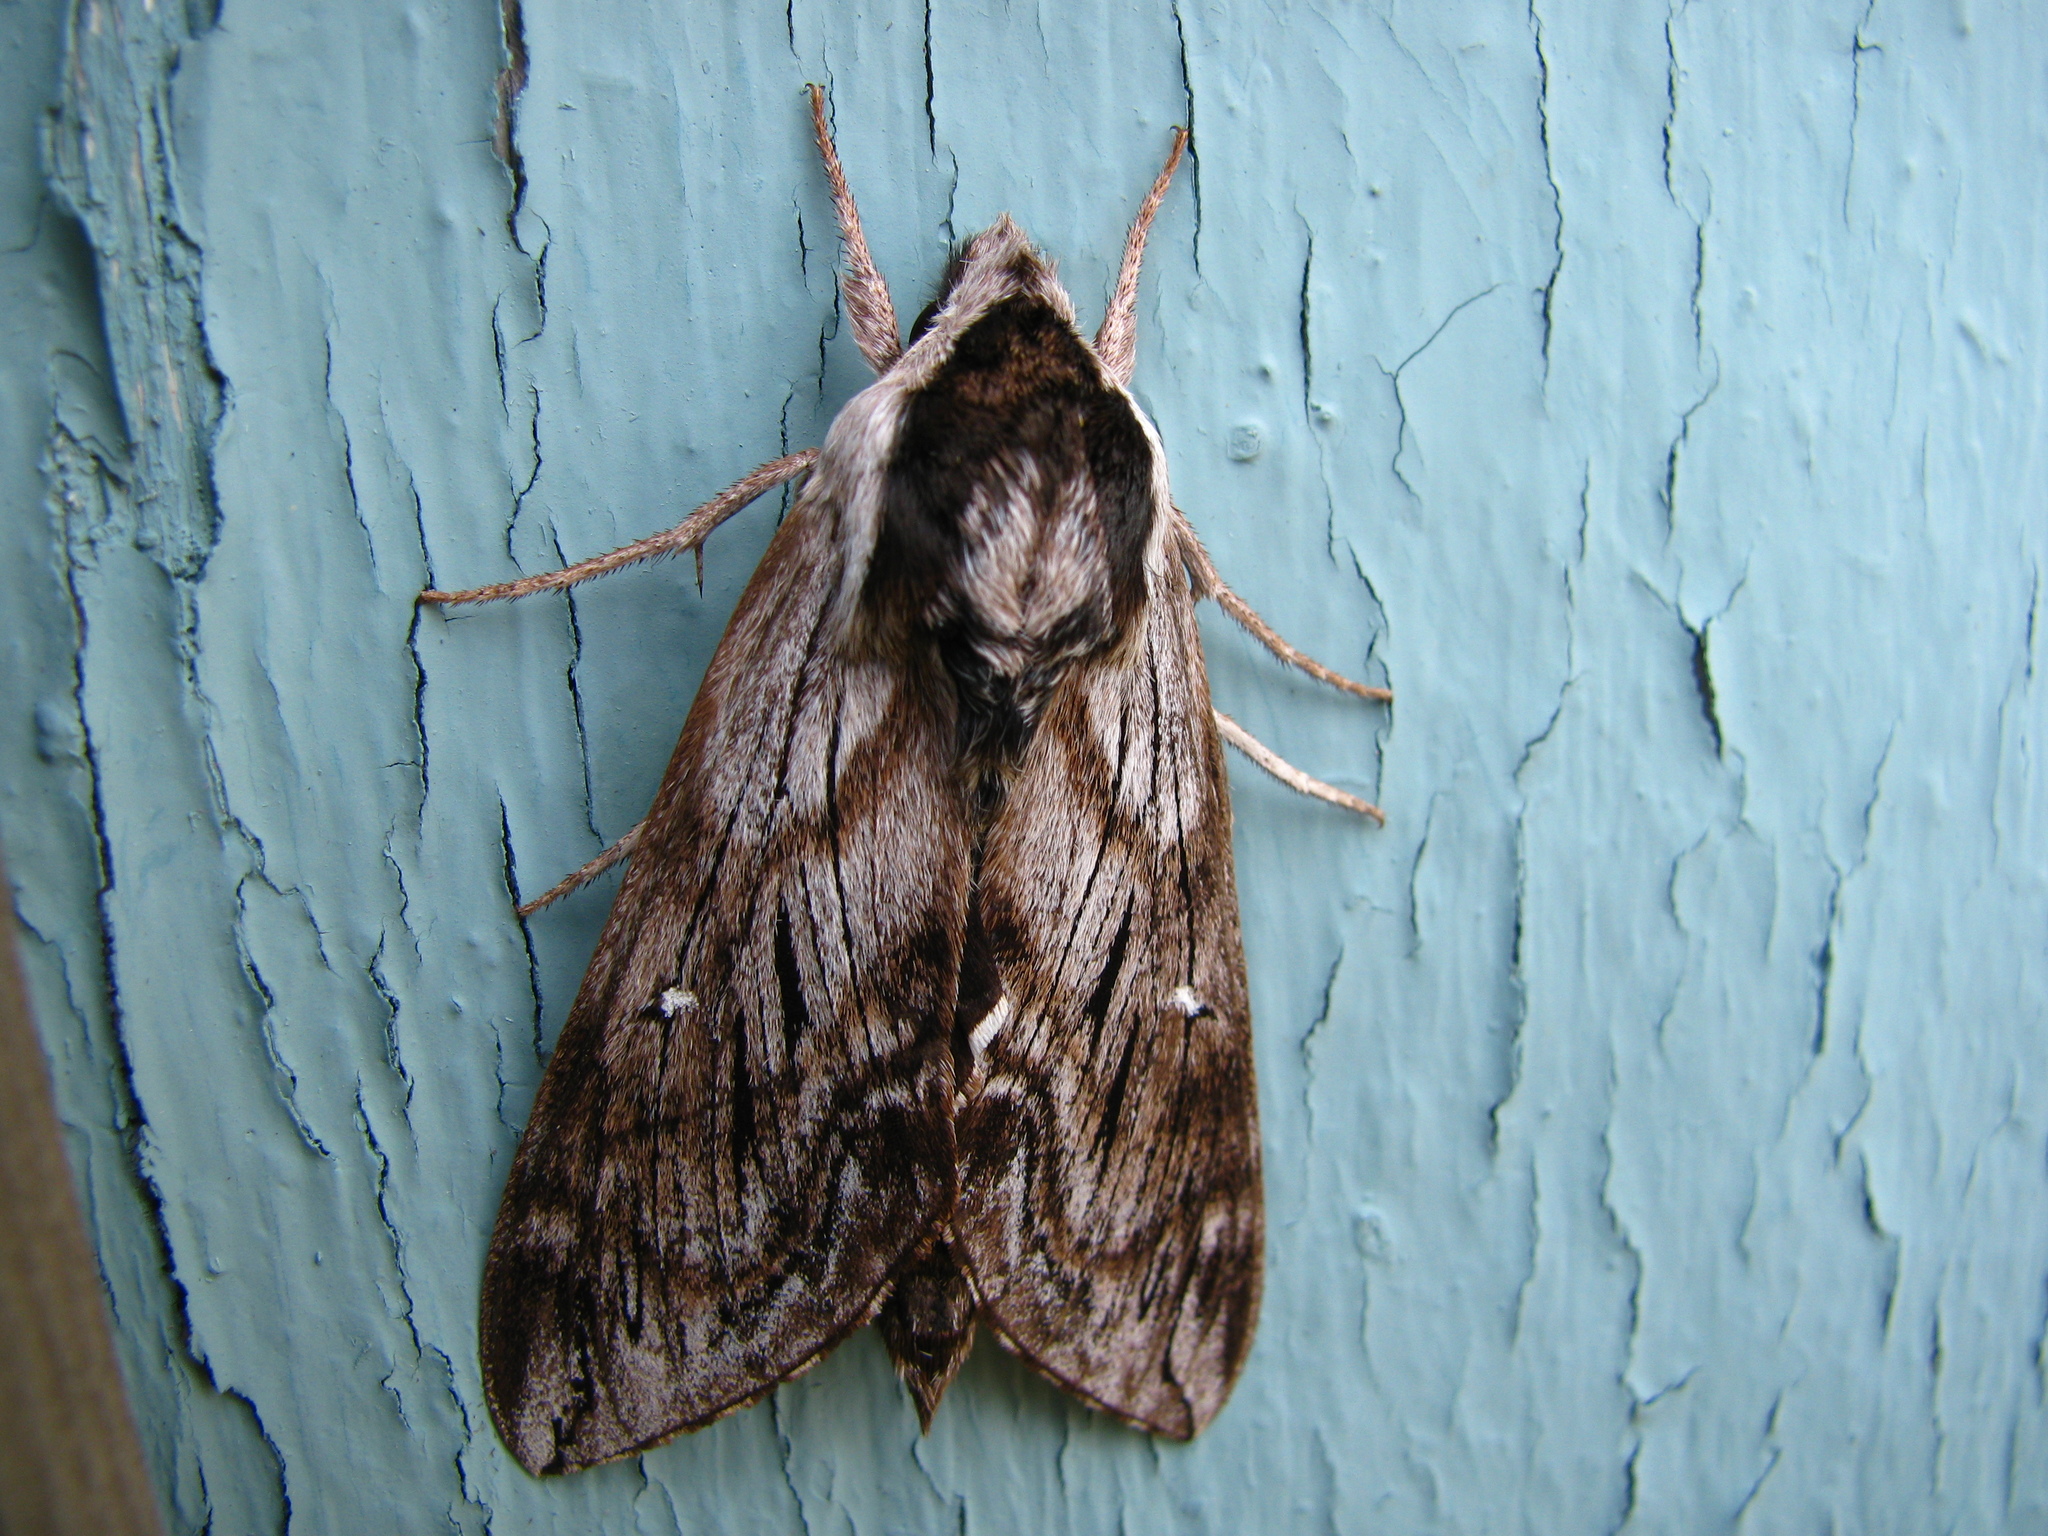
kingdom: Animalia
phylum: Arthropoda
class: Insecta
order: Lepidoptera
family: Sphingidae
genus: Sphinx
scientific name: Sphinx poecila
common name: Northern apple sphinx
